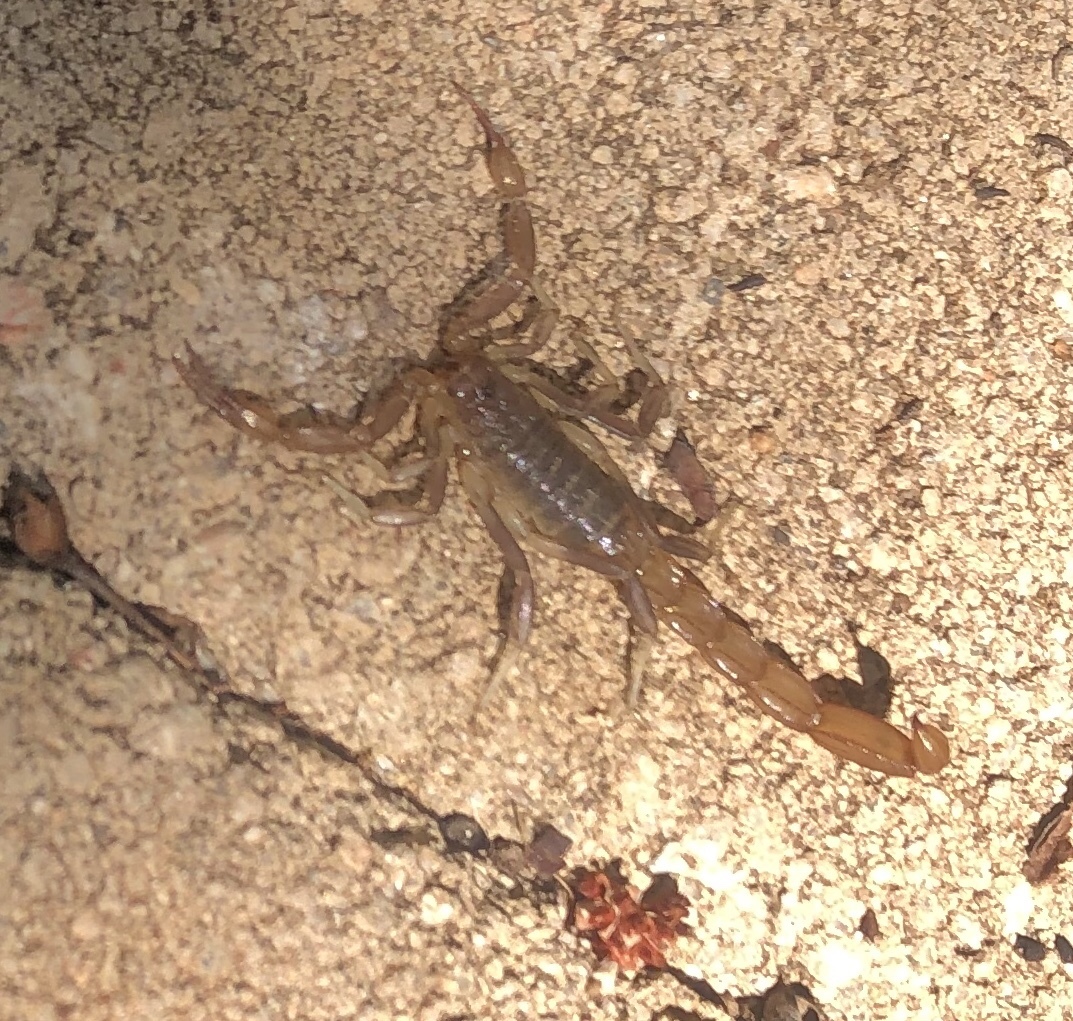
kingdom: Animalia
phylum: Arthropoda
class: Arachnida
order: Scorpiones
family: Vaejovidae
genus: Paravaejovis
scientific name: Paravaejovis puritanus
